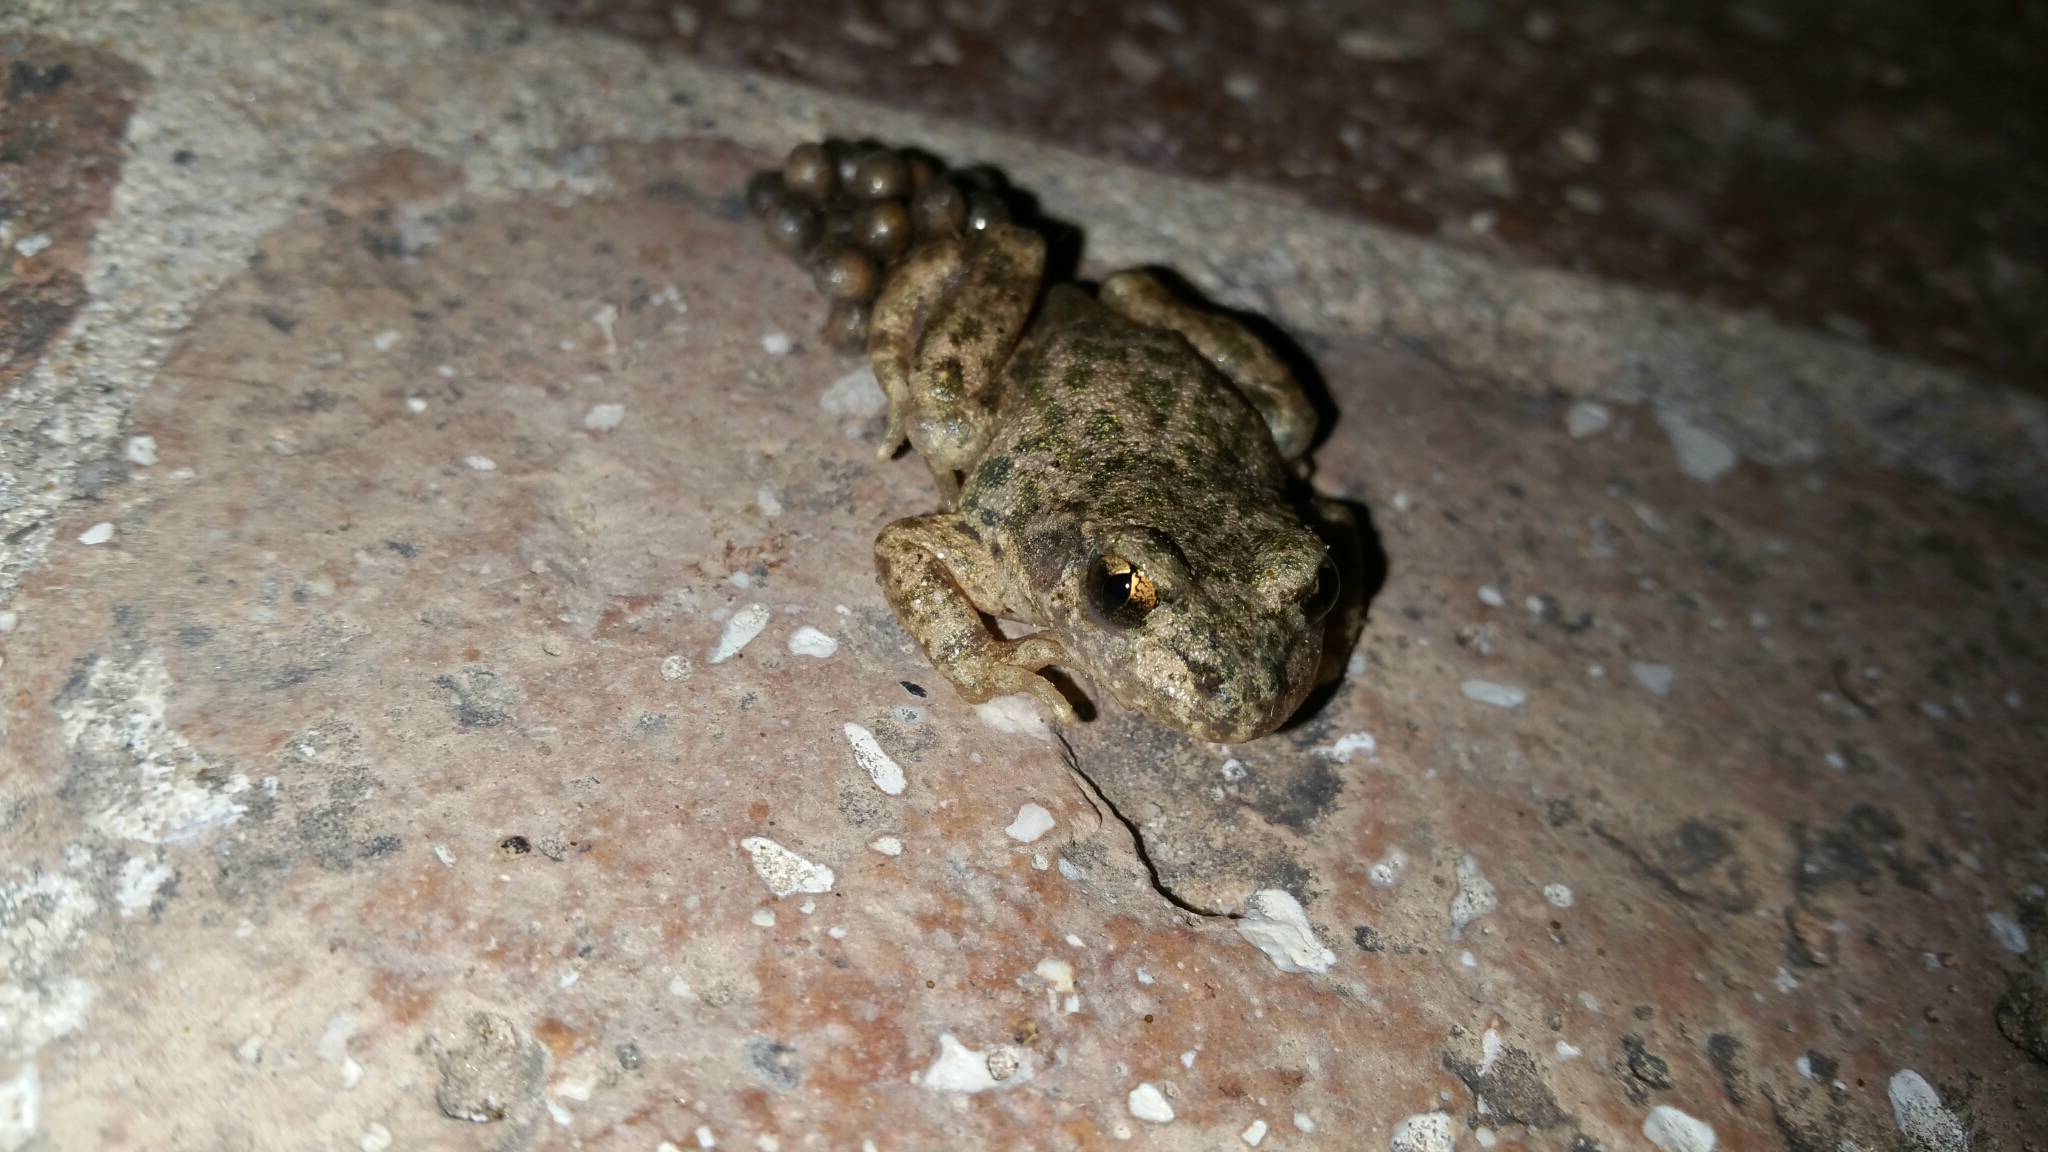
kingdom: Animalia
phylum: Chordata
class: Amphibia
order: Anura
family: Alytidae
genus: Alytes
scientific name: Alytes obstetricans
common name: Midwife toad
